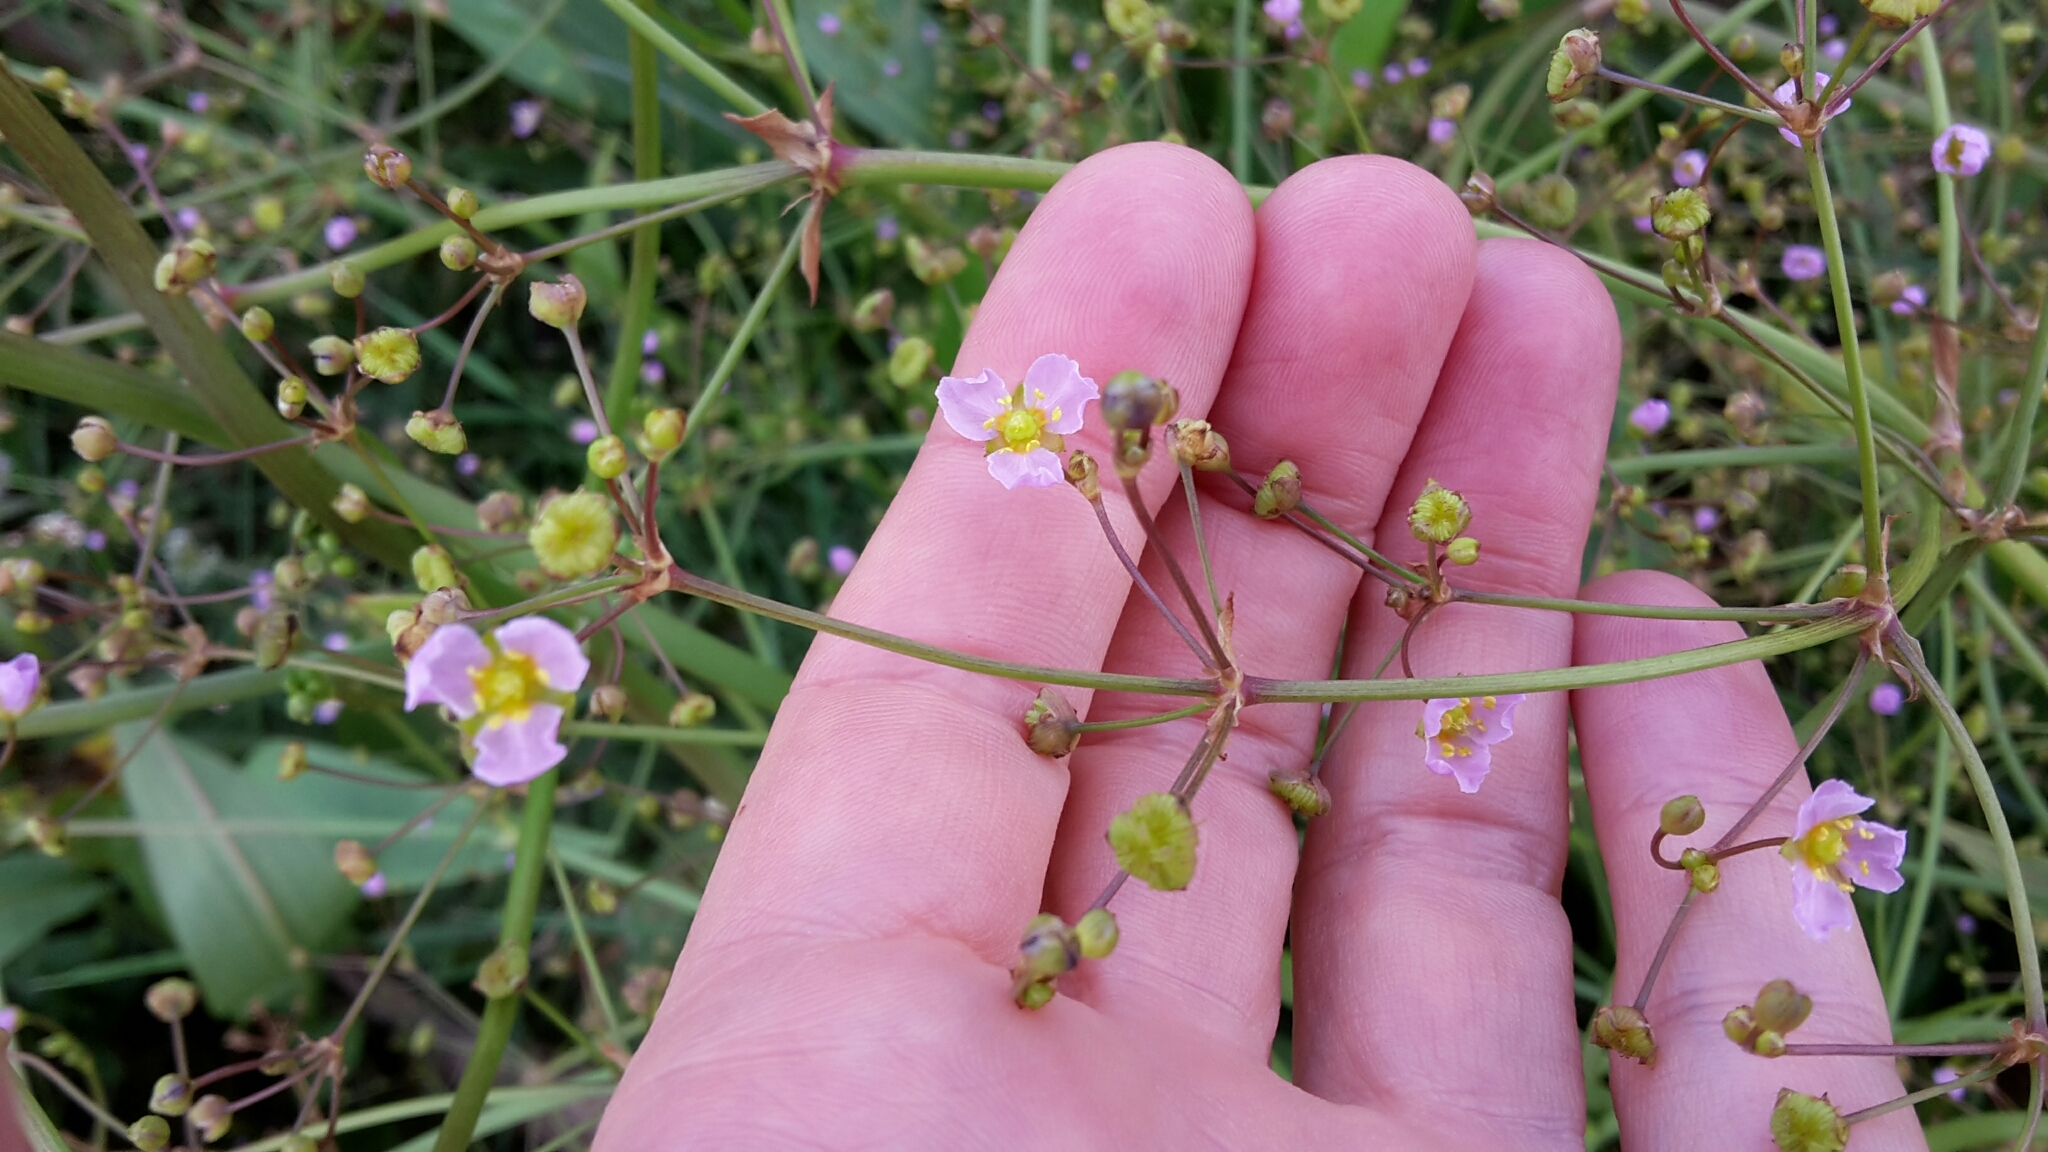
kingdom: Plantae
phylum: Tracheophyta
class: Liliopsida
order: Alismatales
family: Alismataceae
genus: Alisma
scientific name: Alisma lanceolatum
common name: Narrow-leaved water-plantain
